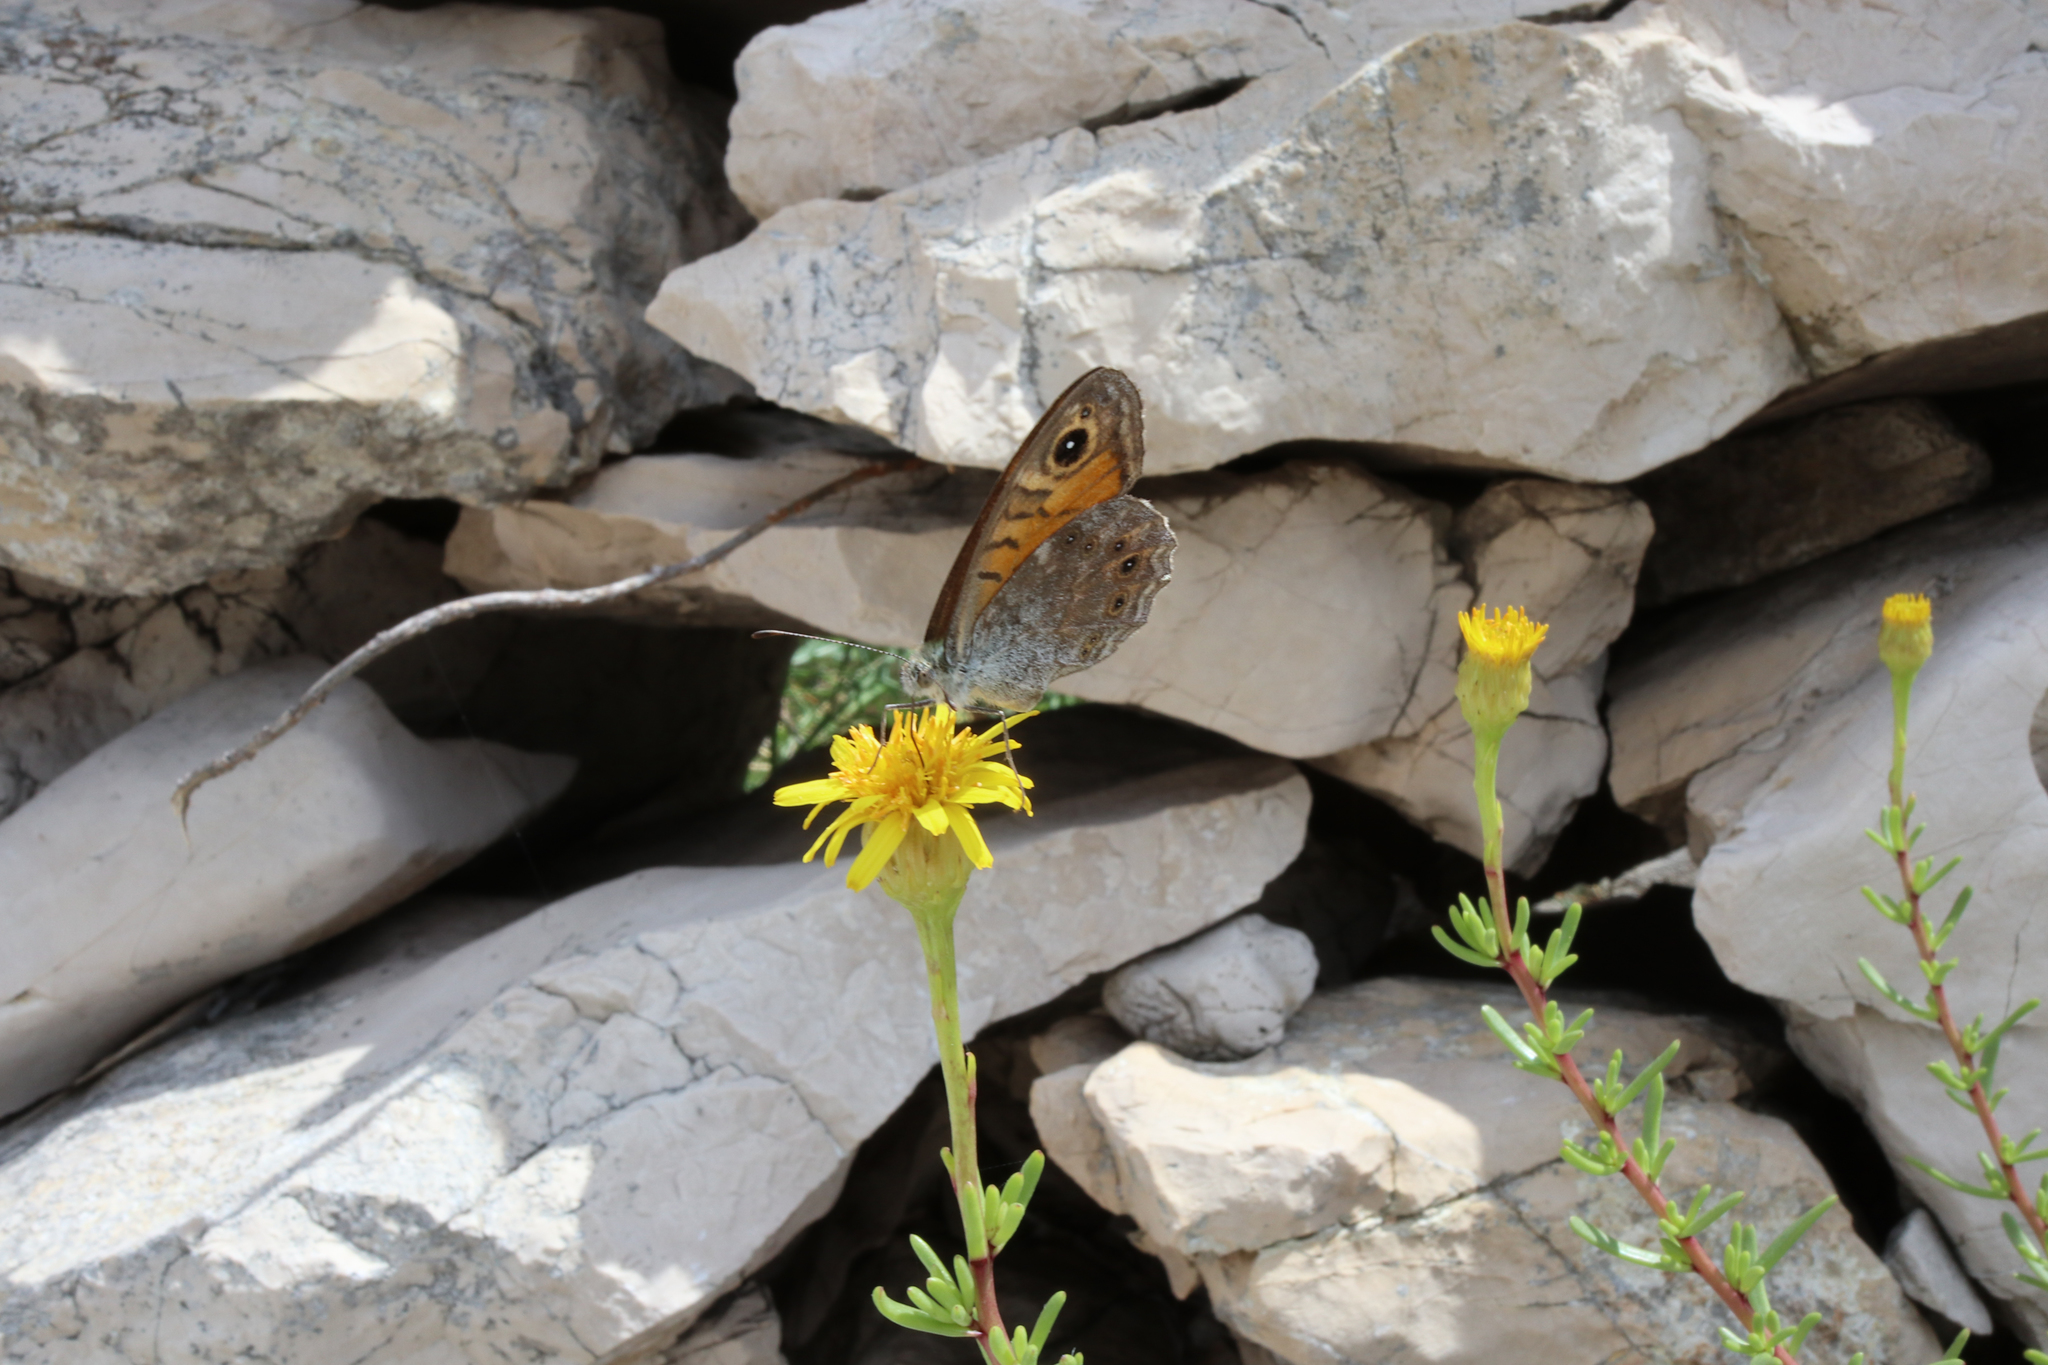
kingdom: Animalia
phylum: Arthropoda
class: Insecta
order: Lepidoptera
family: Nymphalidae
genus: Pararge
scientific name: Pararge Lasiommata megera
